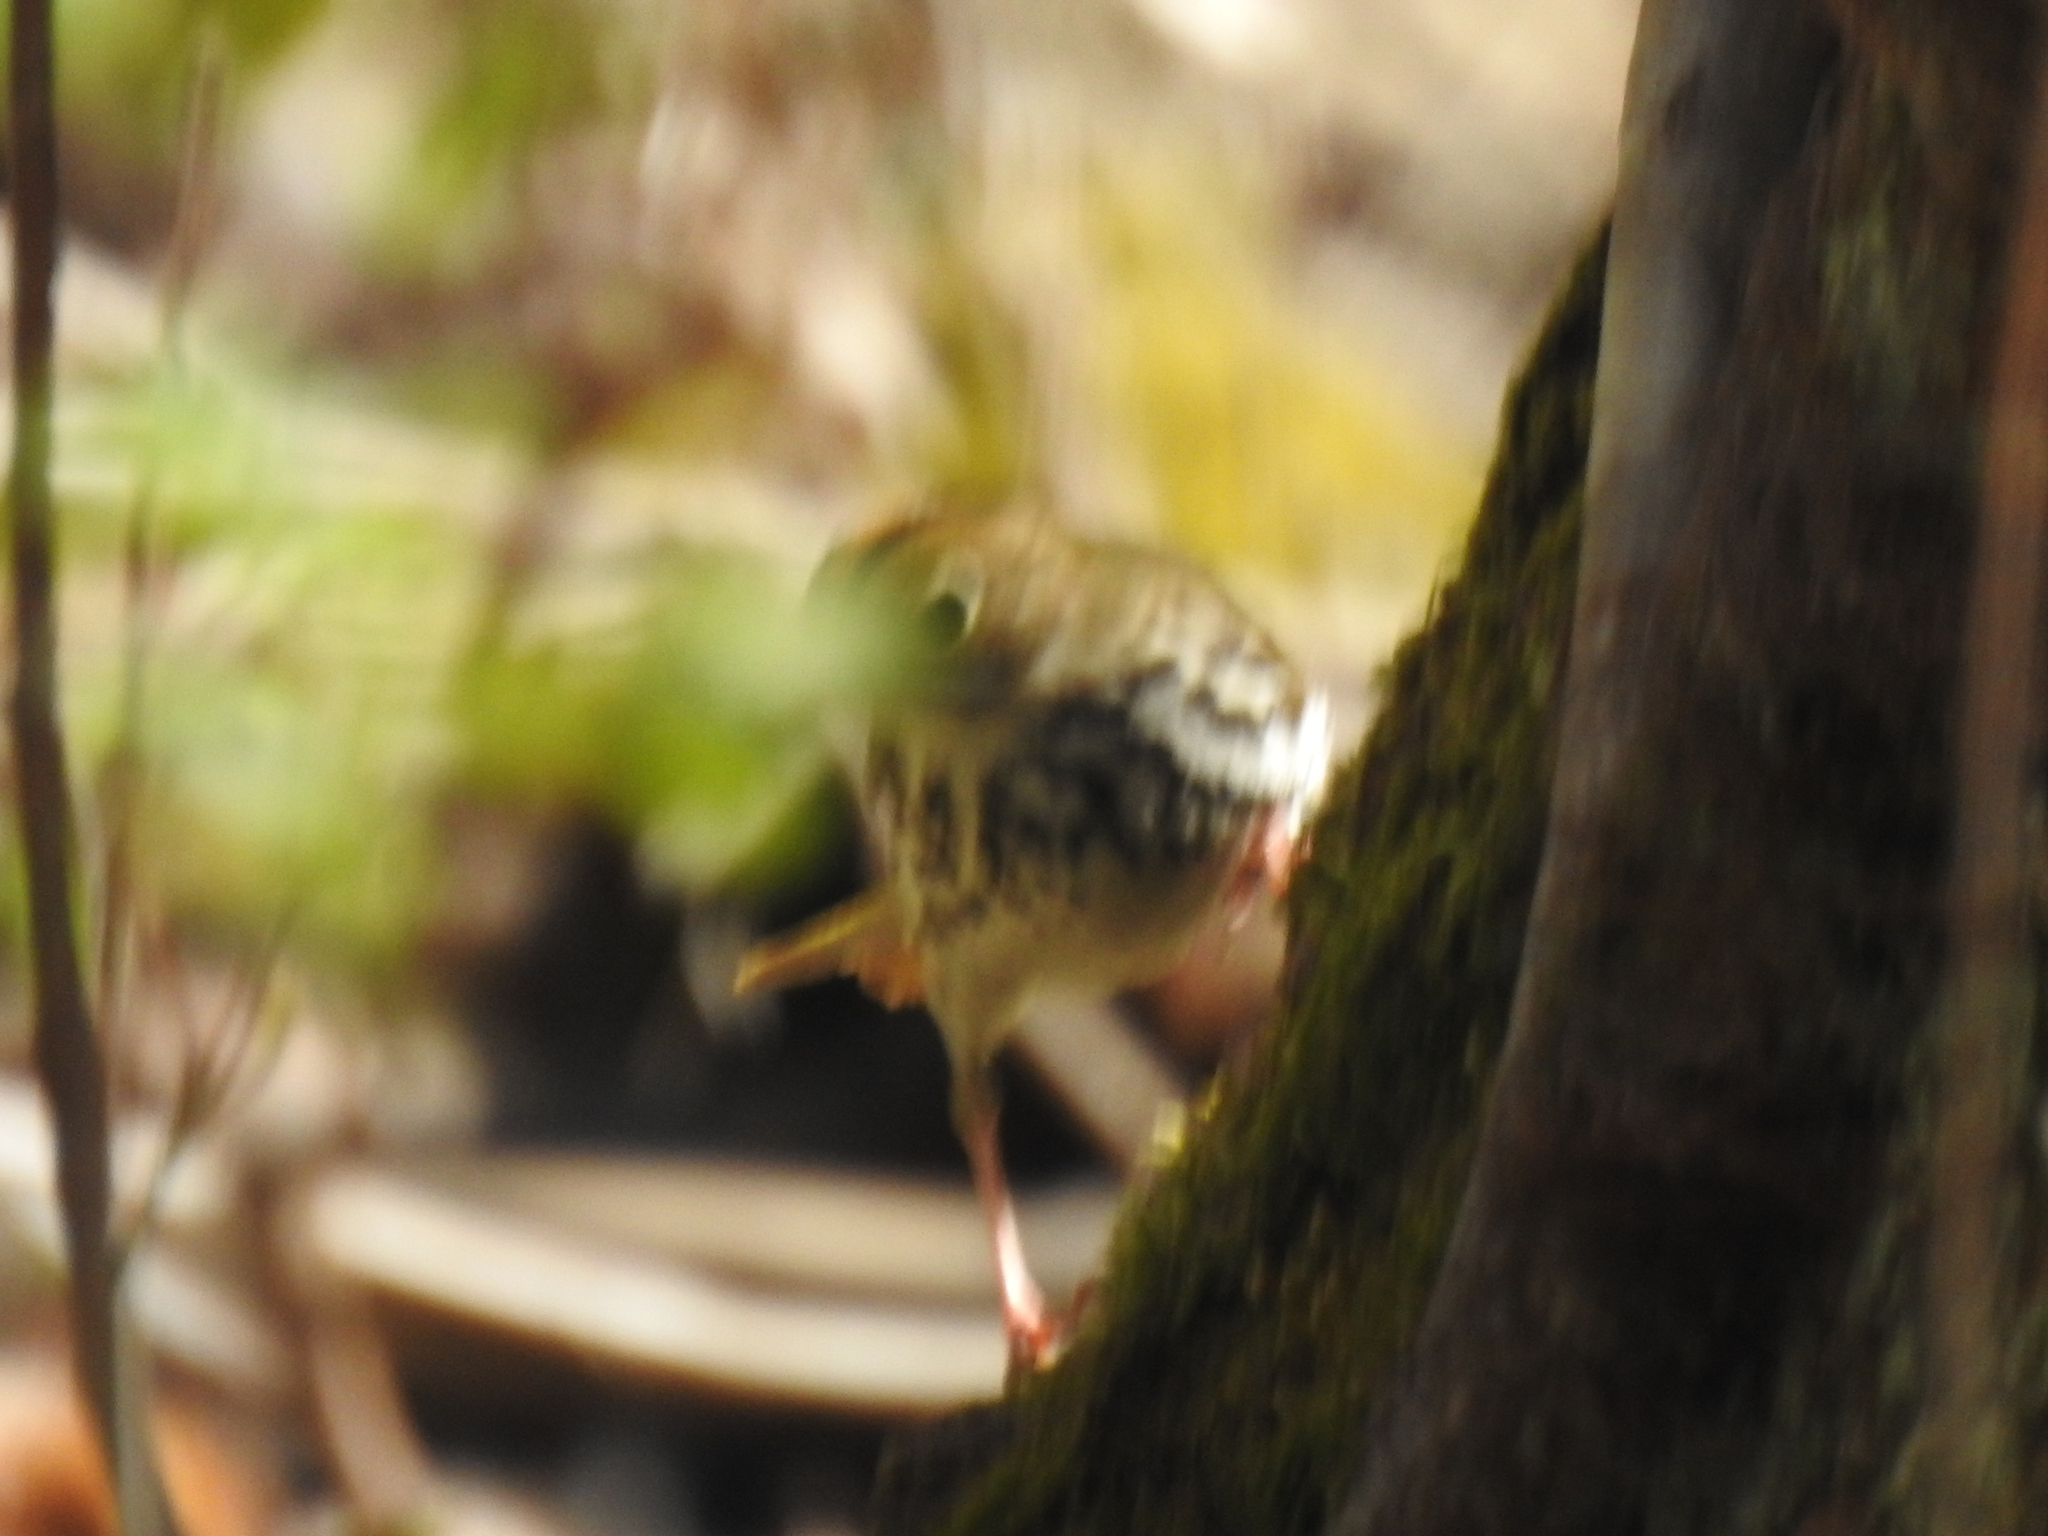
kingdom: Animalia
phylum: Chordata
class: Aves
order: Passeriformes
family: Parulidae
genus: Seiurus
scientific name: Seiurus aurocapilla
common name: Ovenbird
